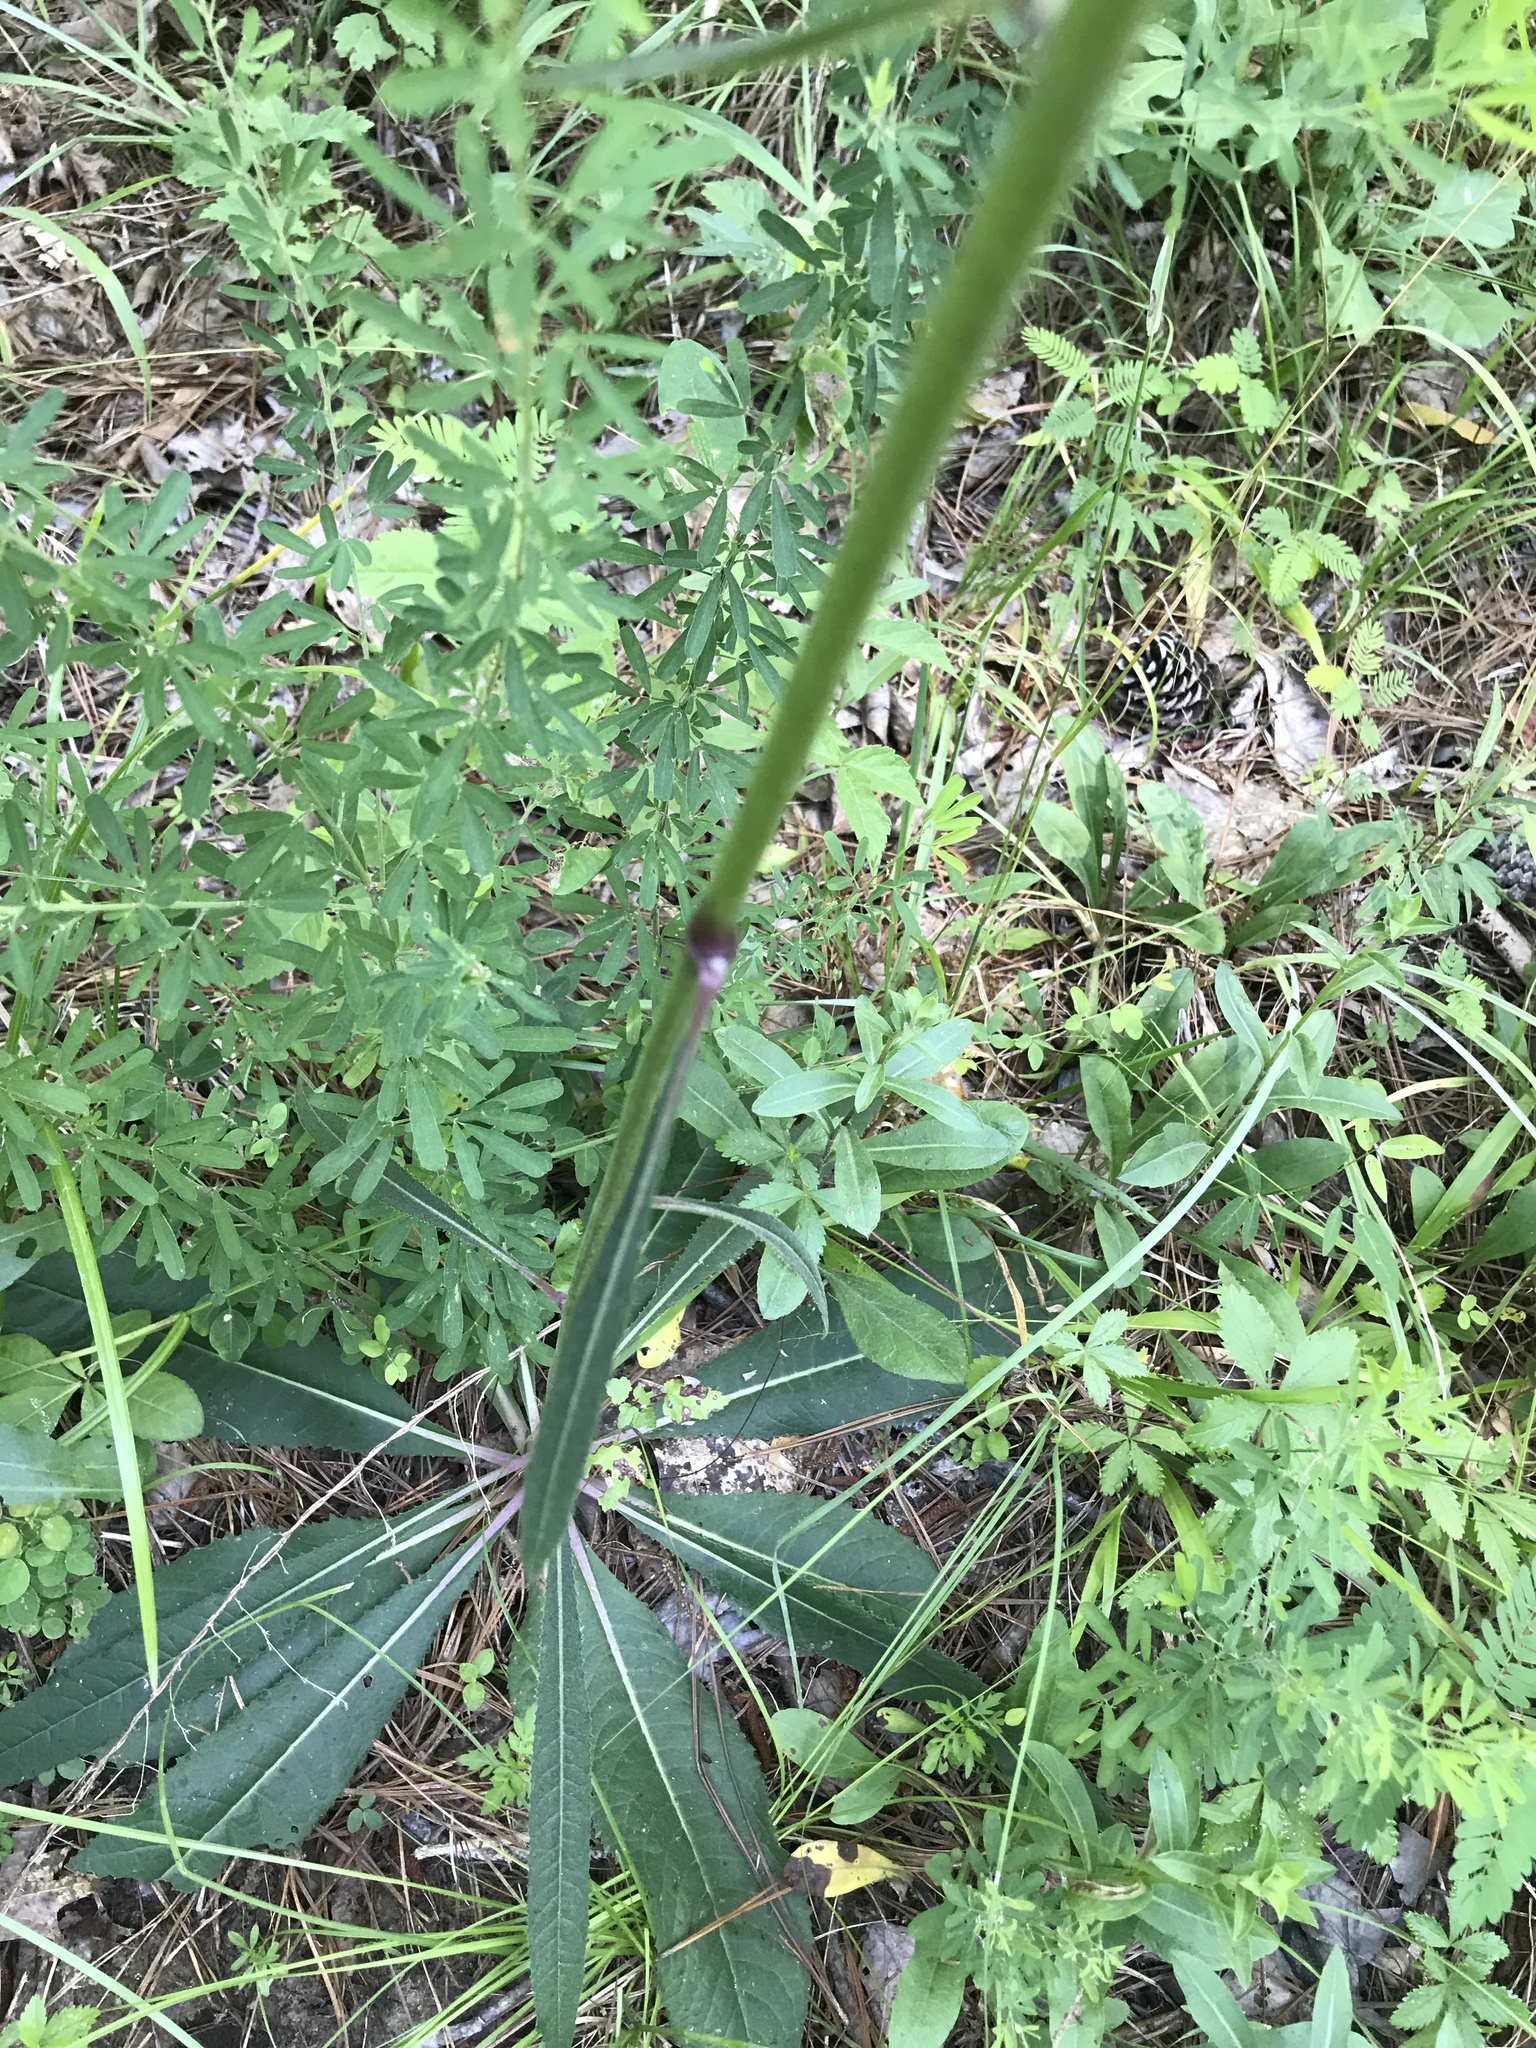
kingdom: Plantae
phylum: Tracheophyta
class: Magnoliopsida
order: Asterales
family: Asteraceae
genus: Vernonia
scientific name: Vernonia acaulis
